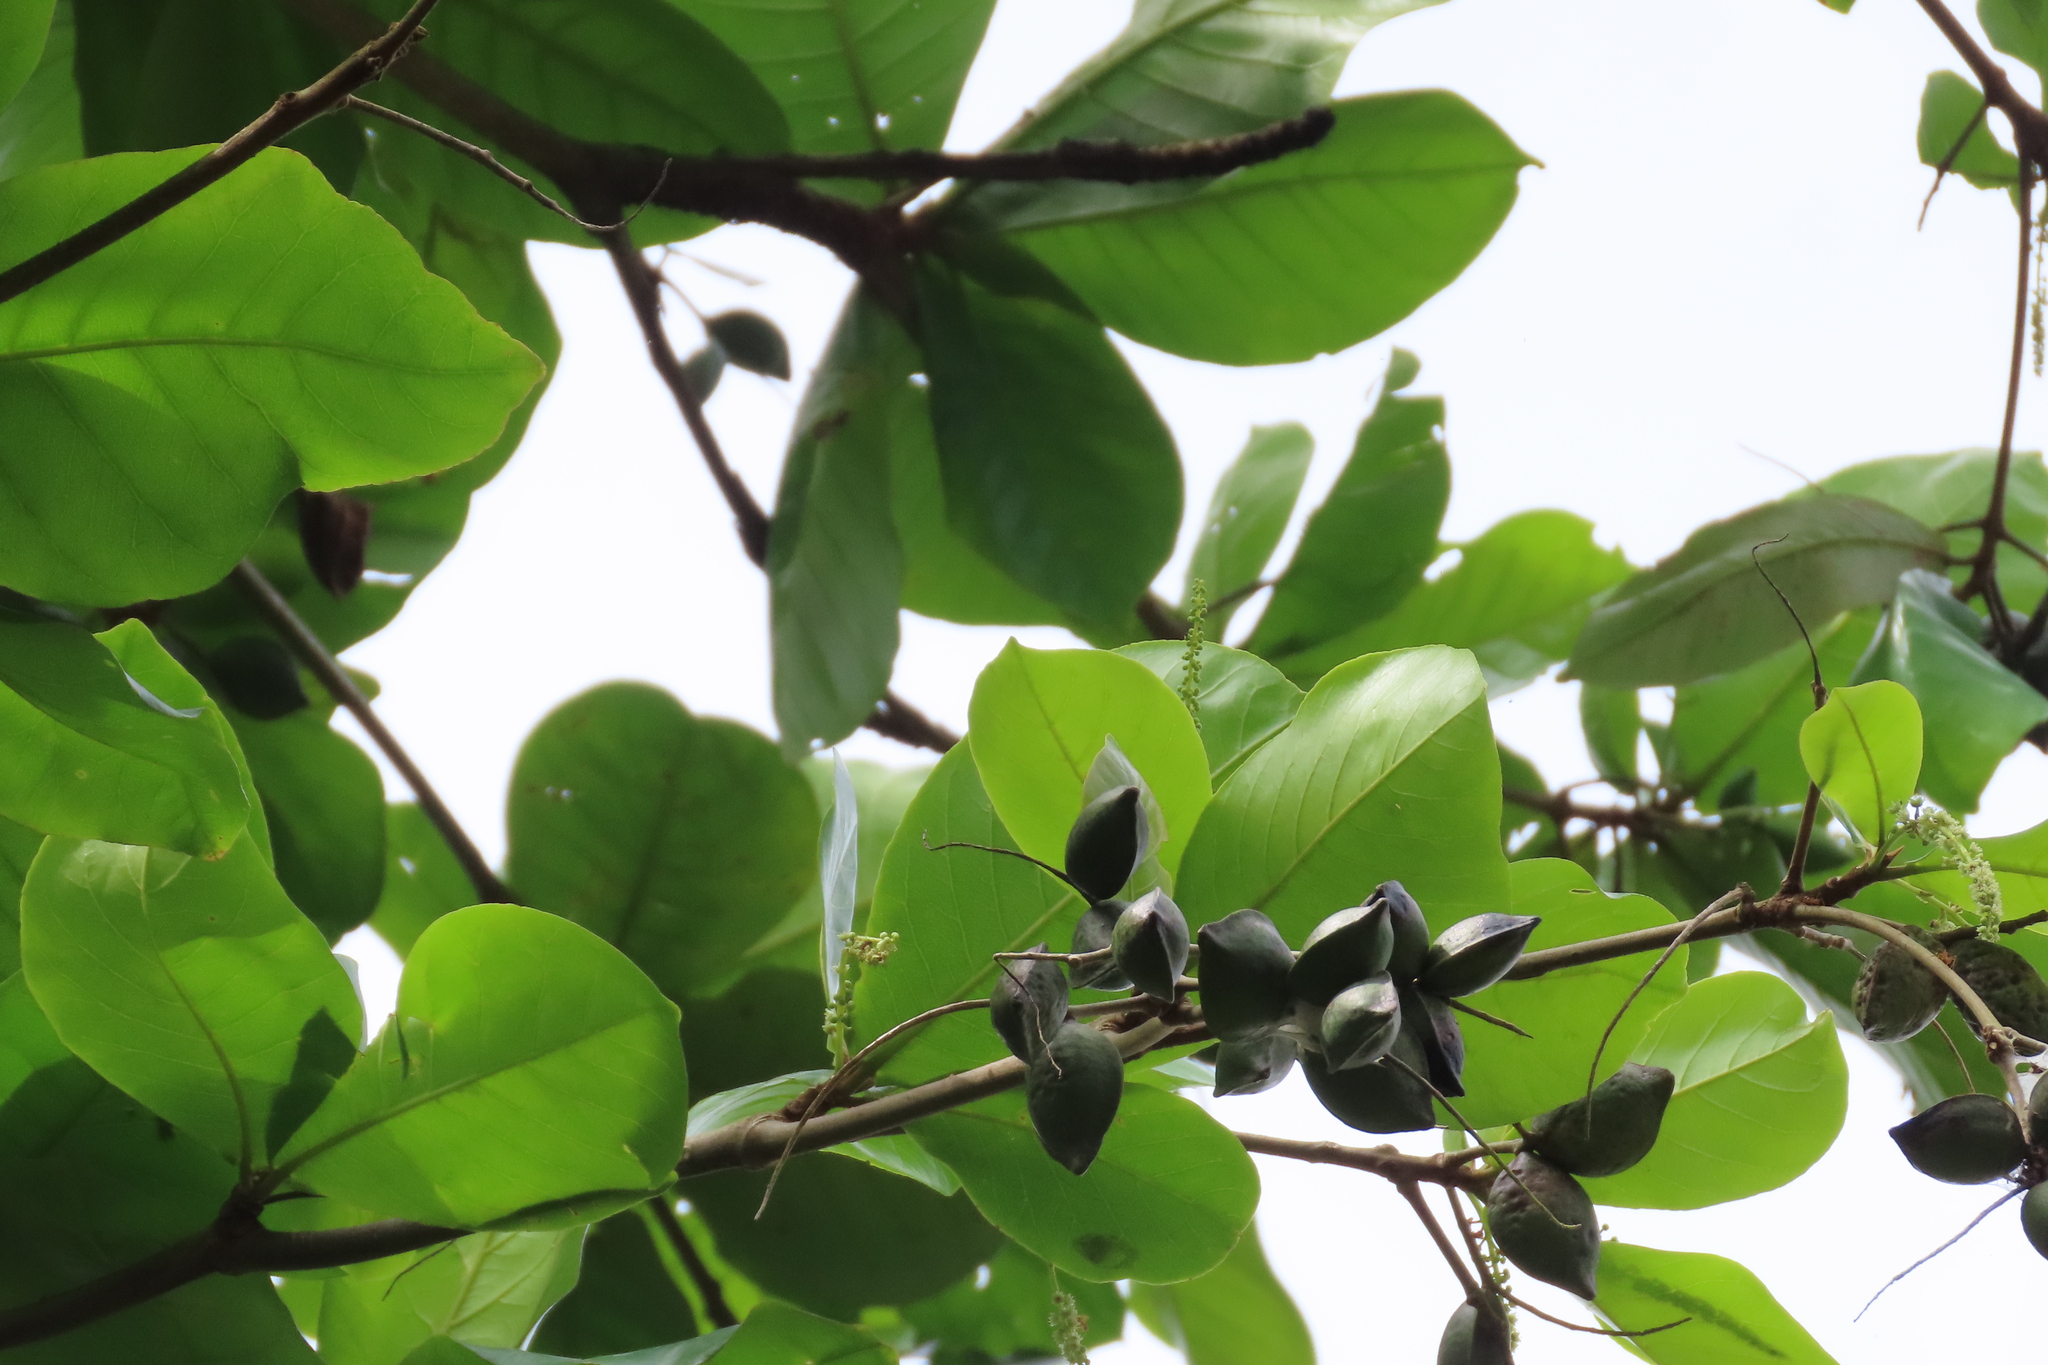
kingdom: Plantae
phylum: Tracheophyta
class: Magnoliopsida
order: Myrtales
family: Combretaceae
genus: Terminalia
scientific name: Terminalia catappa
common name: Tropical almond
